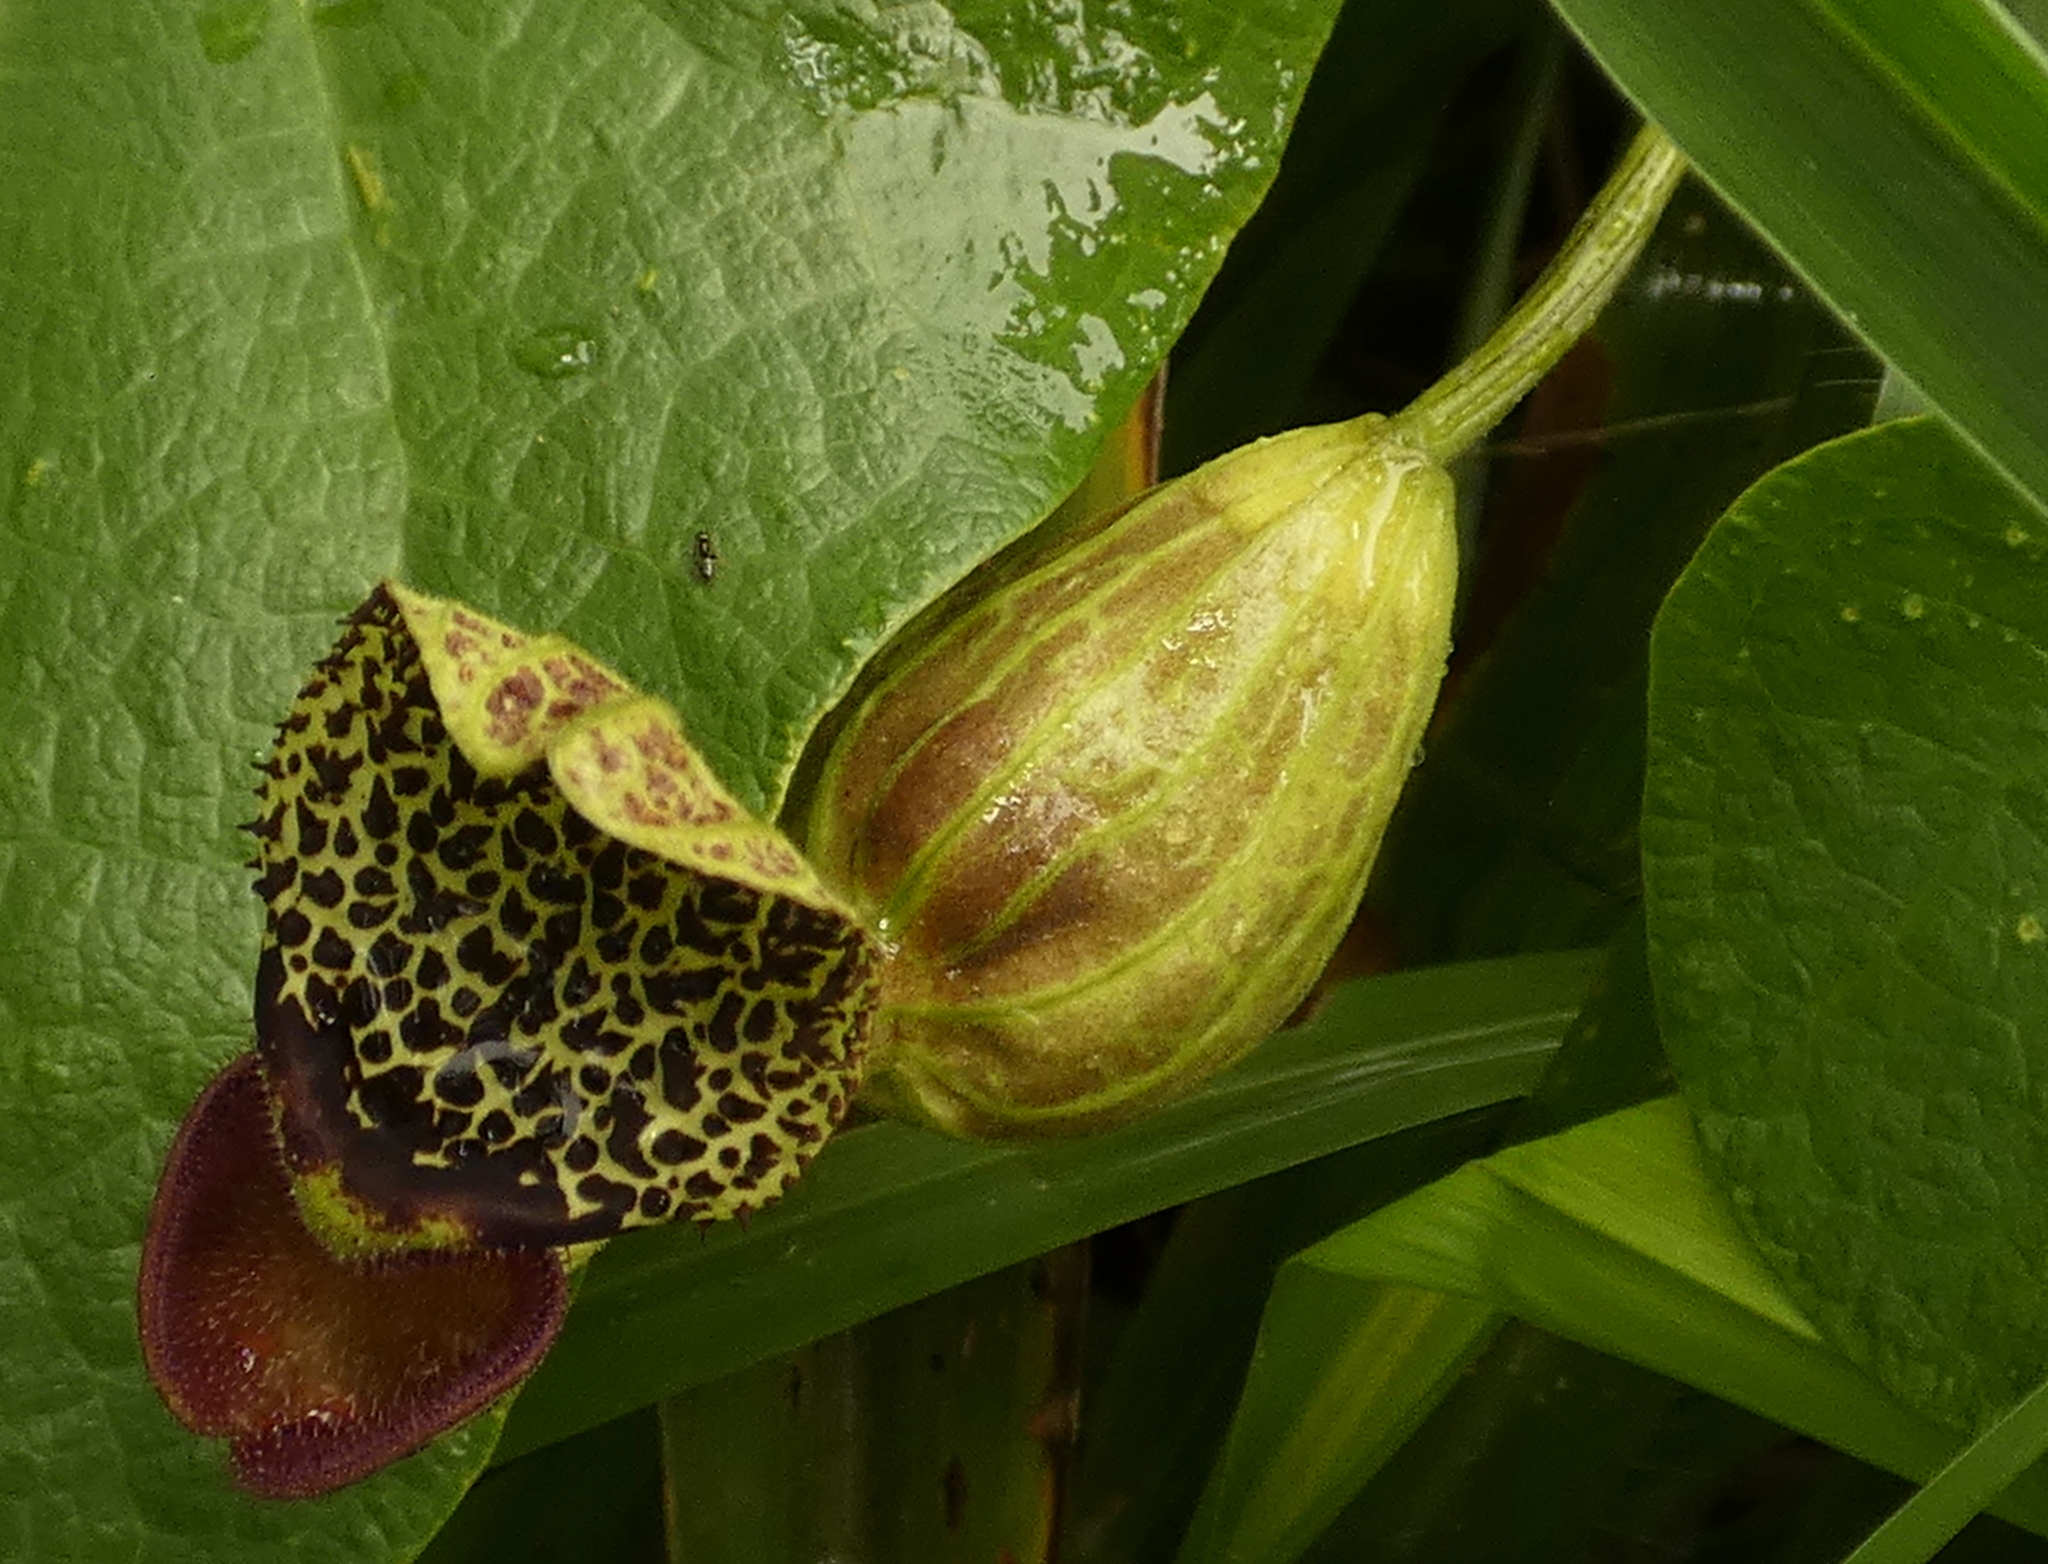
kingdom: Plantae
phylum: Tracheophyta
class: Magnoliopsida
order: Piperales
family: Aristolochiaceae
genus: Aristolochia
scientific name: Aristolochia papillaris
